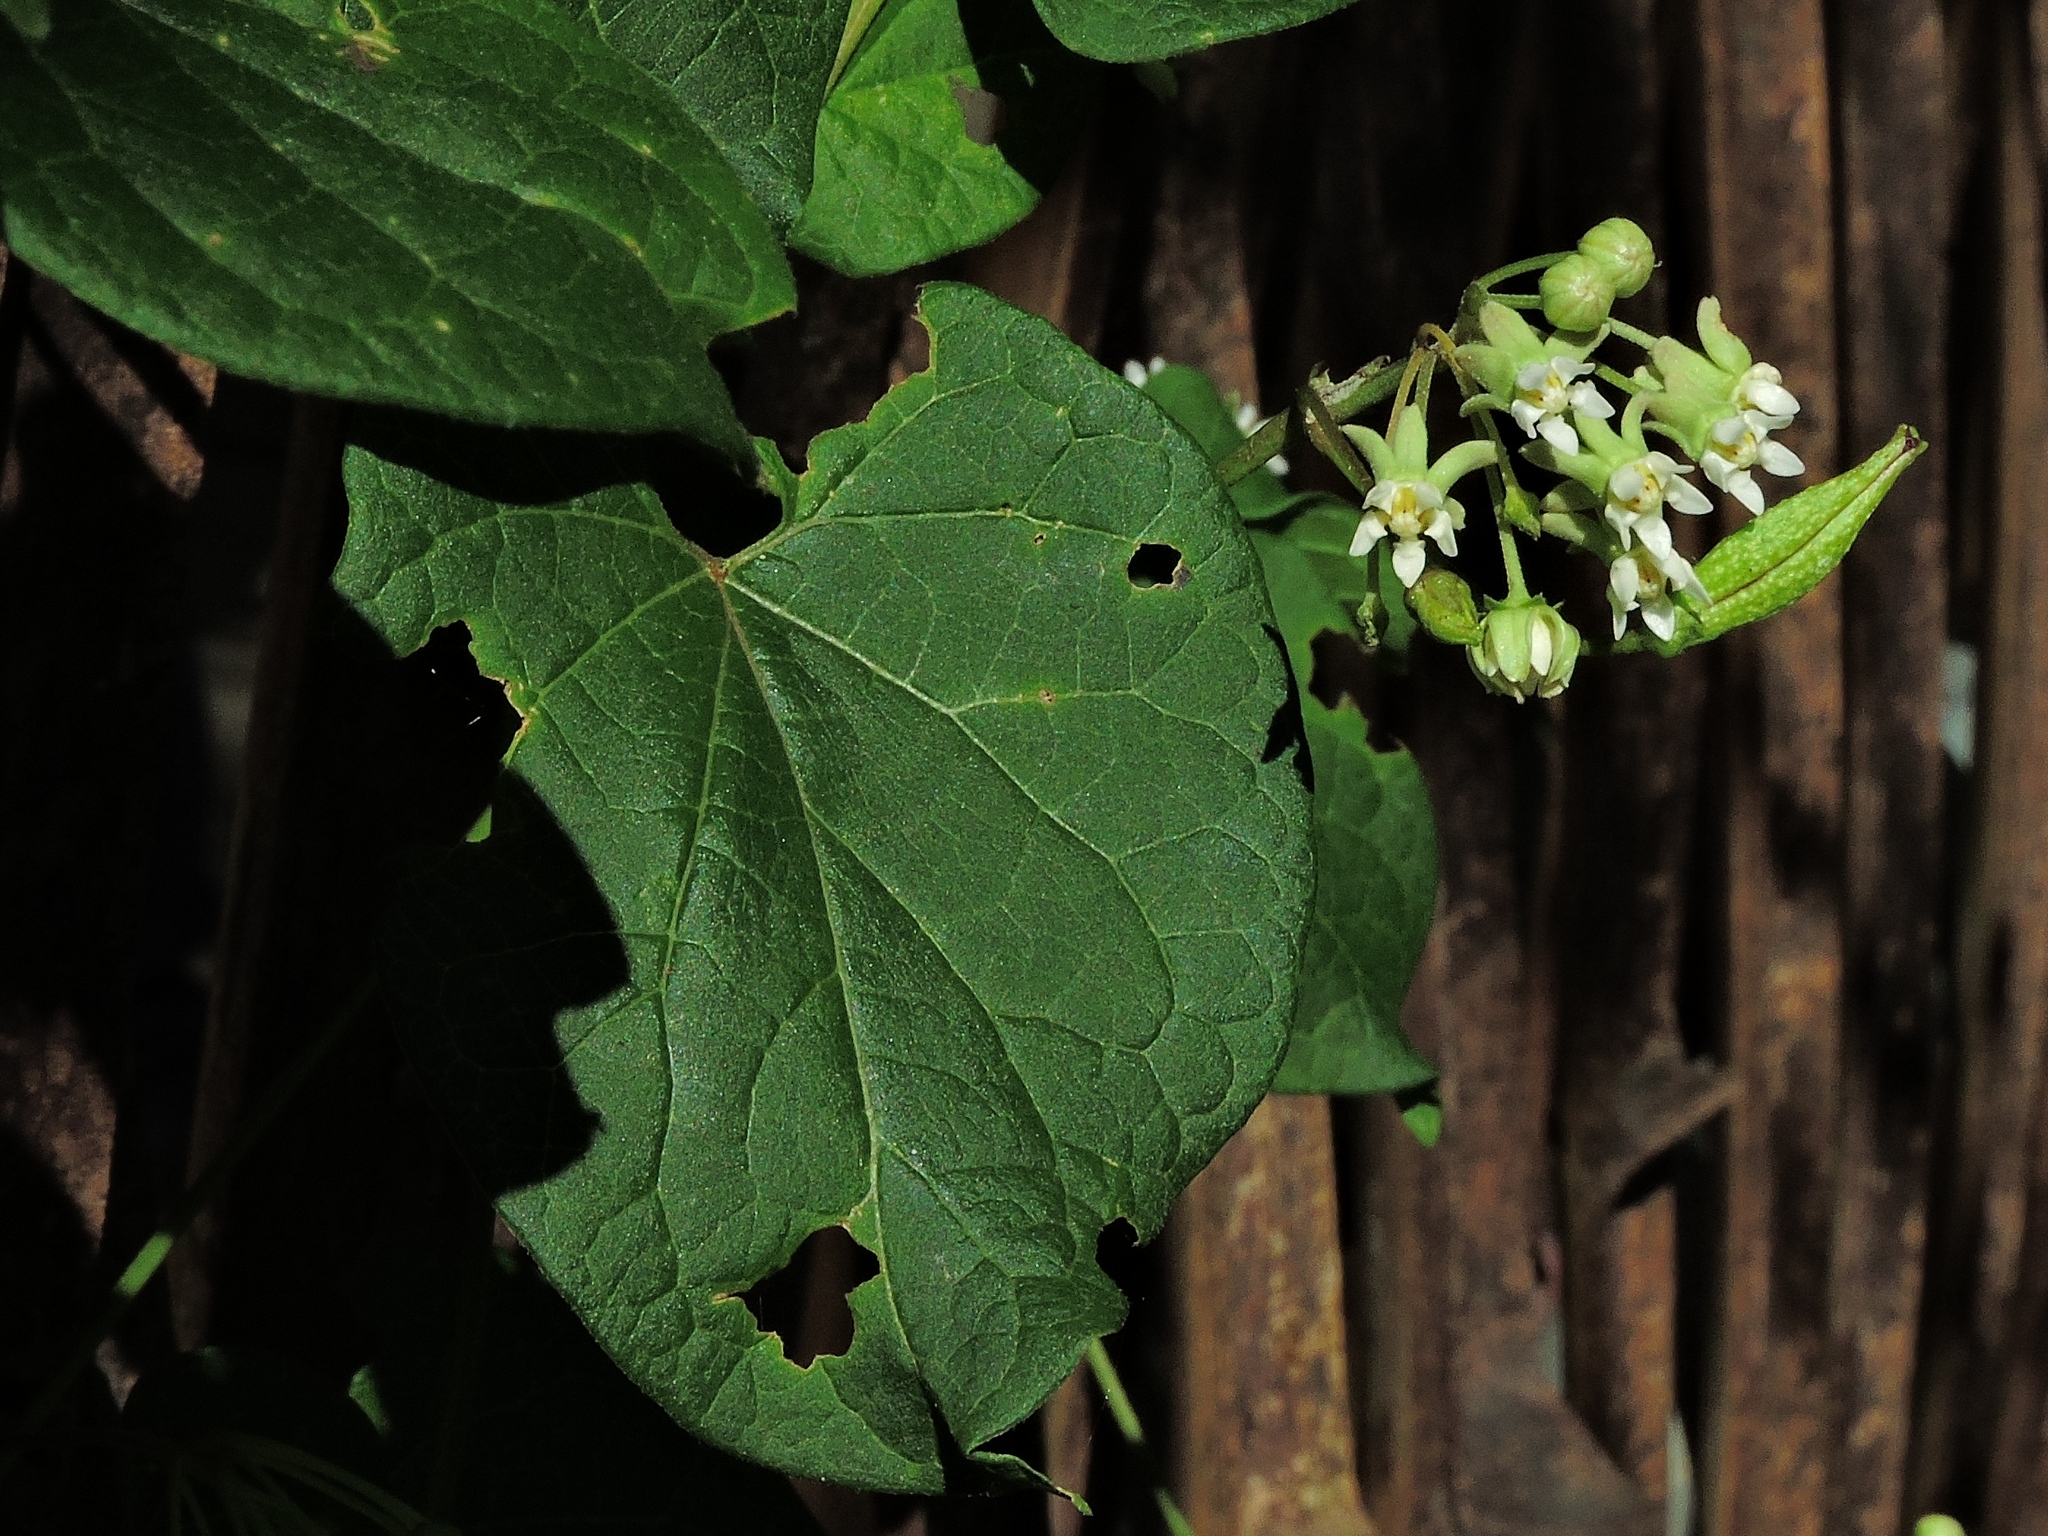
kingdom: Plantae
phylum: Tracheophyta
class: Magnoliopsida
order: Gentianales
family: Apocynaceae
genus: Cynanchum
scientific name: Cynanchum boudieri
